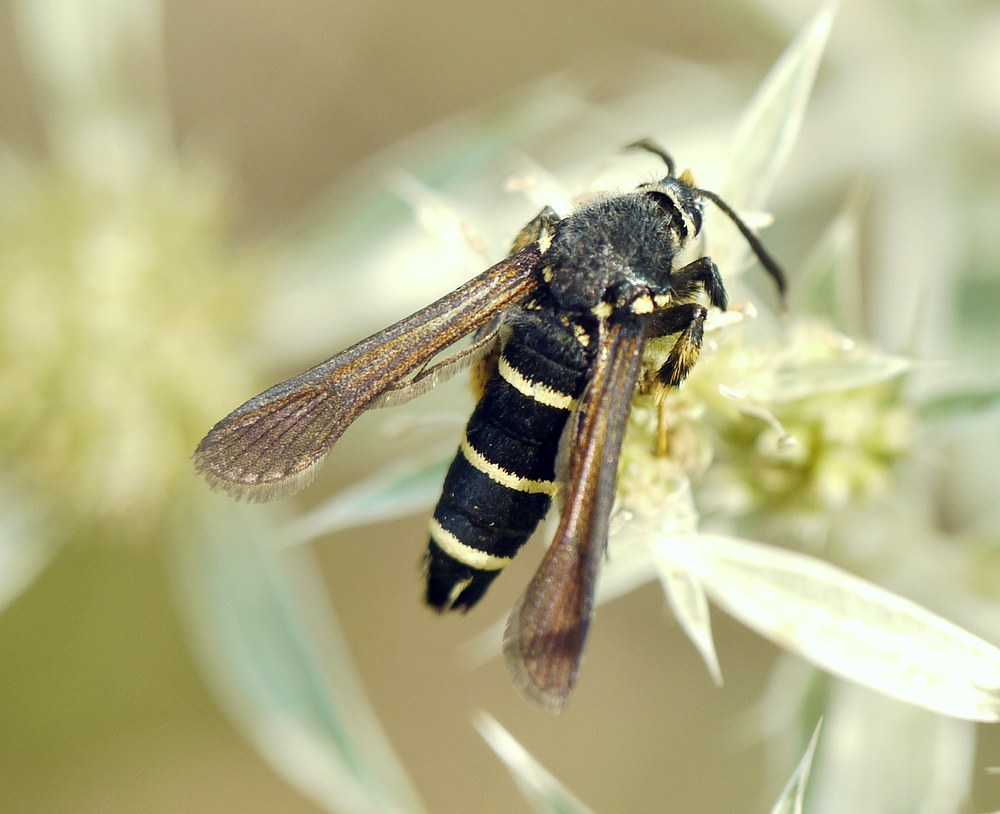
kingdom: Animalia
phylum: Arthropoda
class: Insecta
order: Lepidoptera
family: Sesiidae
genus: Paranthrene
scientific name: Paranthrene tabaniformis
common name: Dusky clearwing
